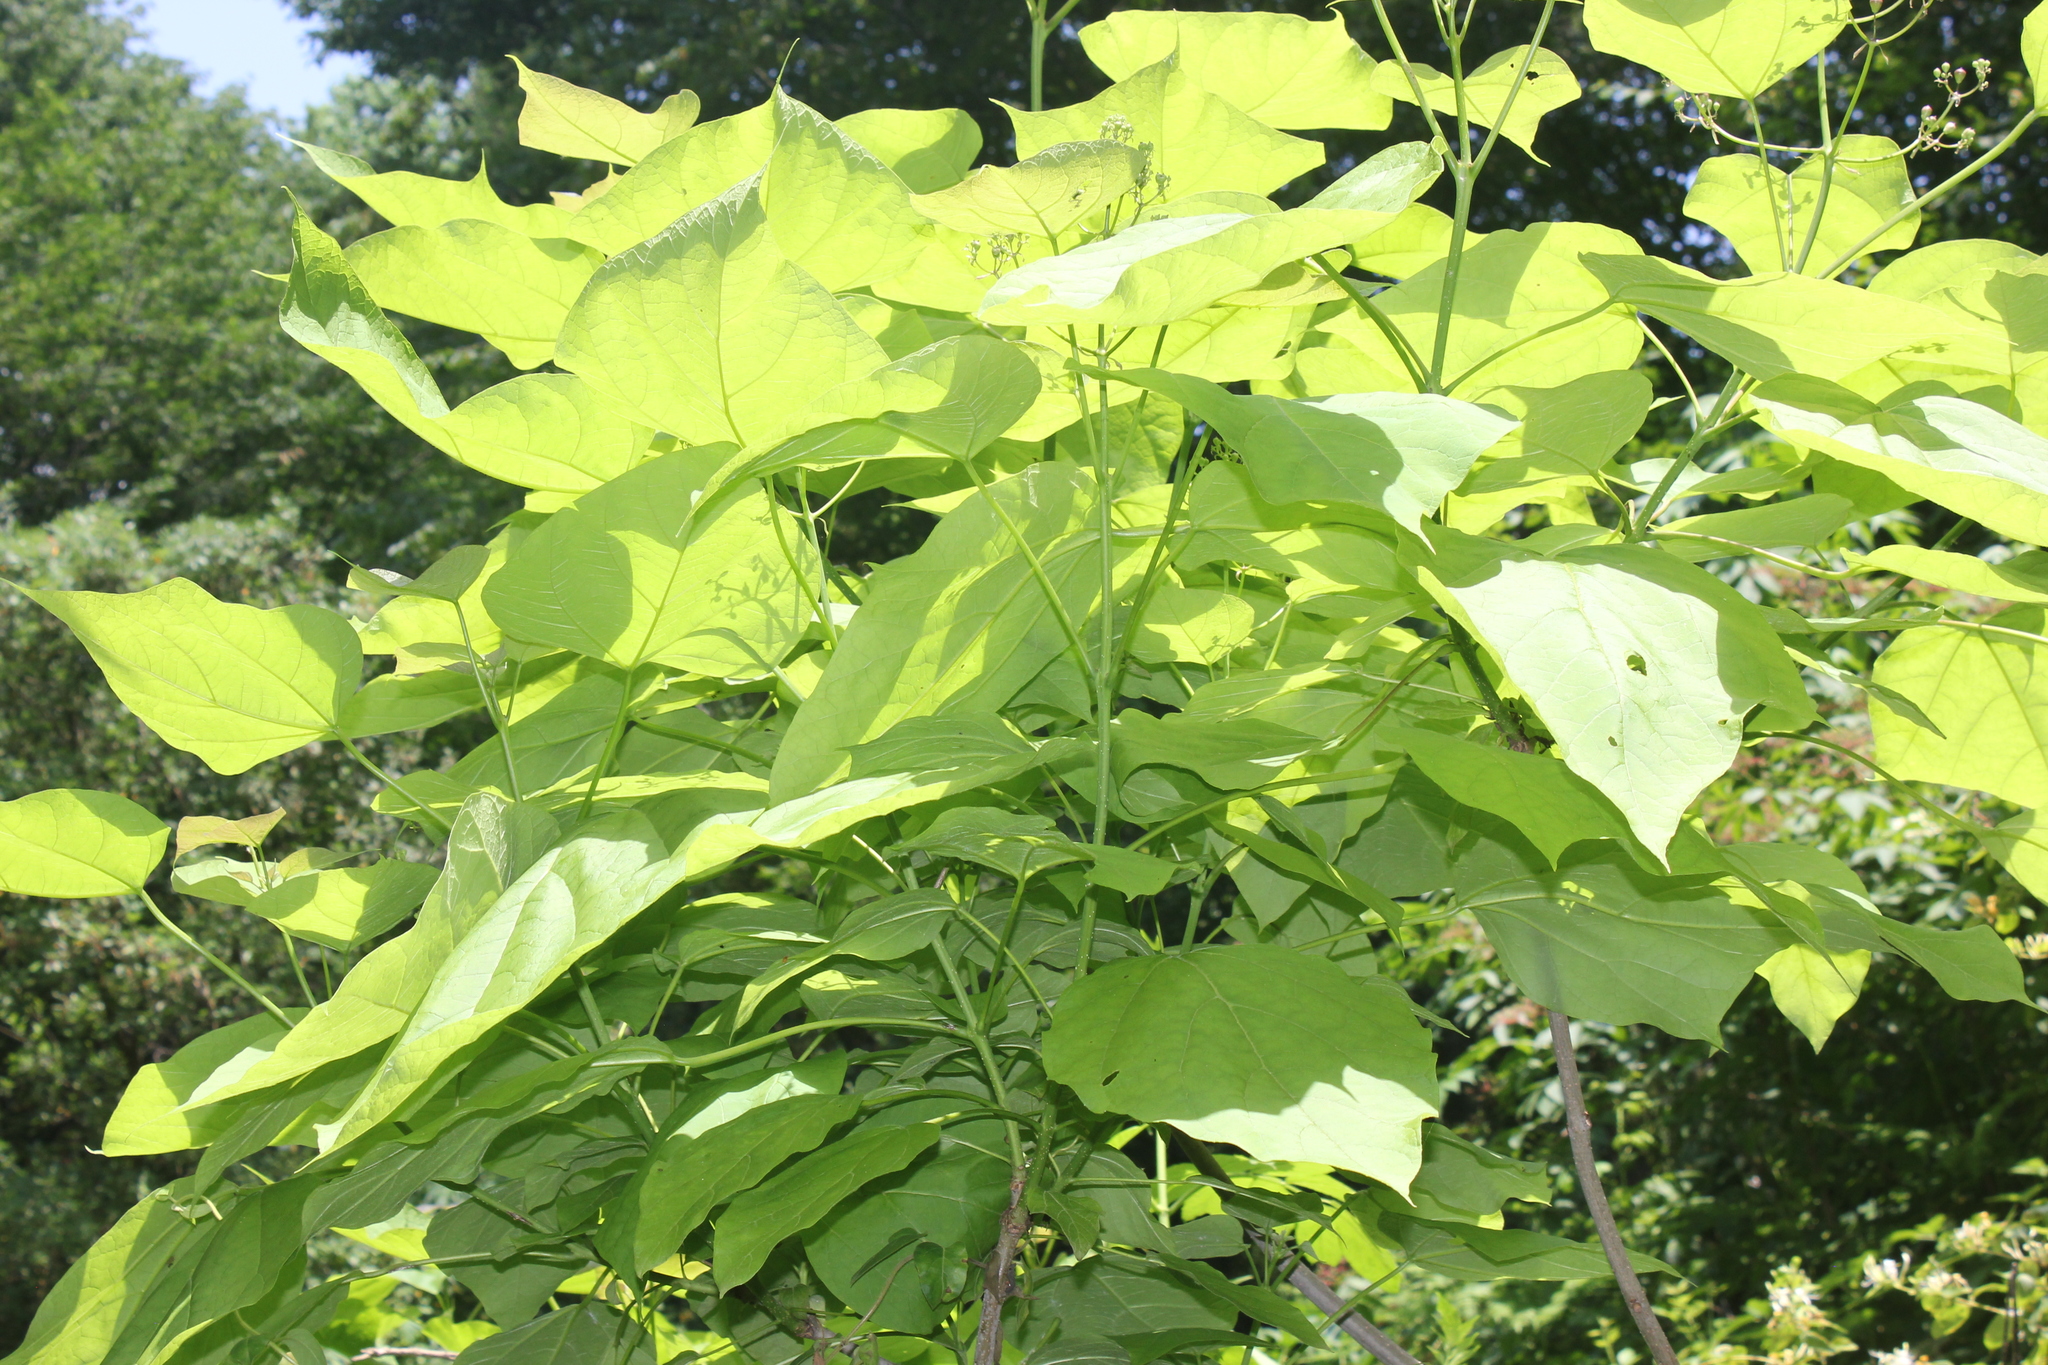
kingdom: Plantae
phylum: Tracheophyta
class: Magnoliopsida
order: Lamiales
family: Bignoniaceae
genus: Catalpa
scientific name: Catalpa bignonioides
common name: Southern catalpa
